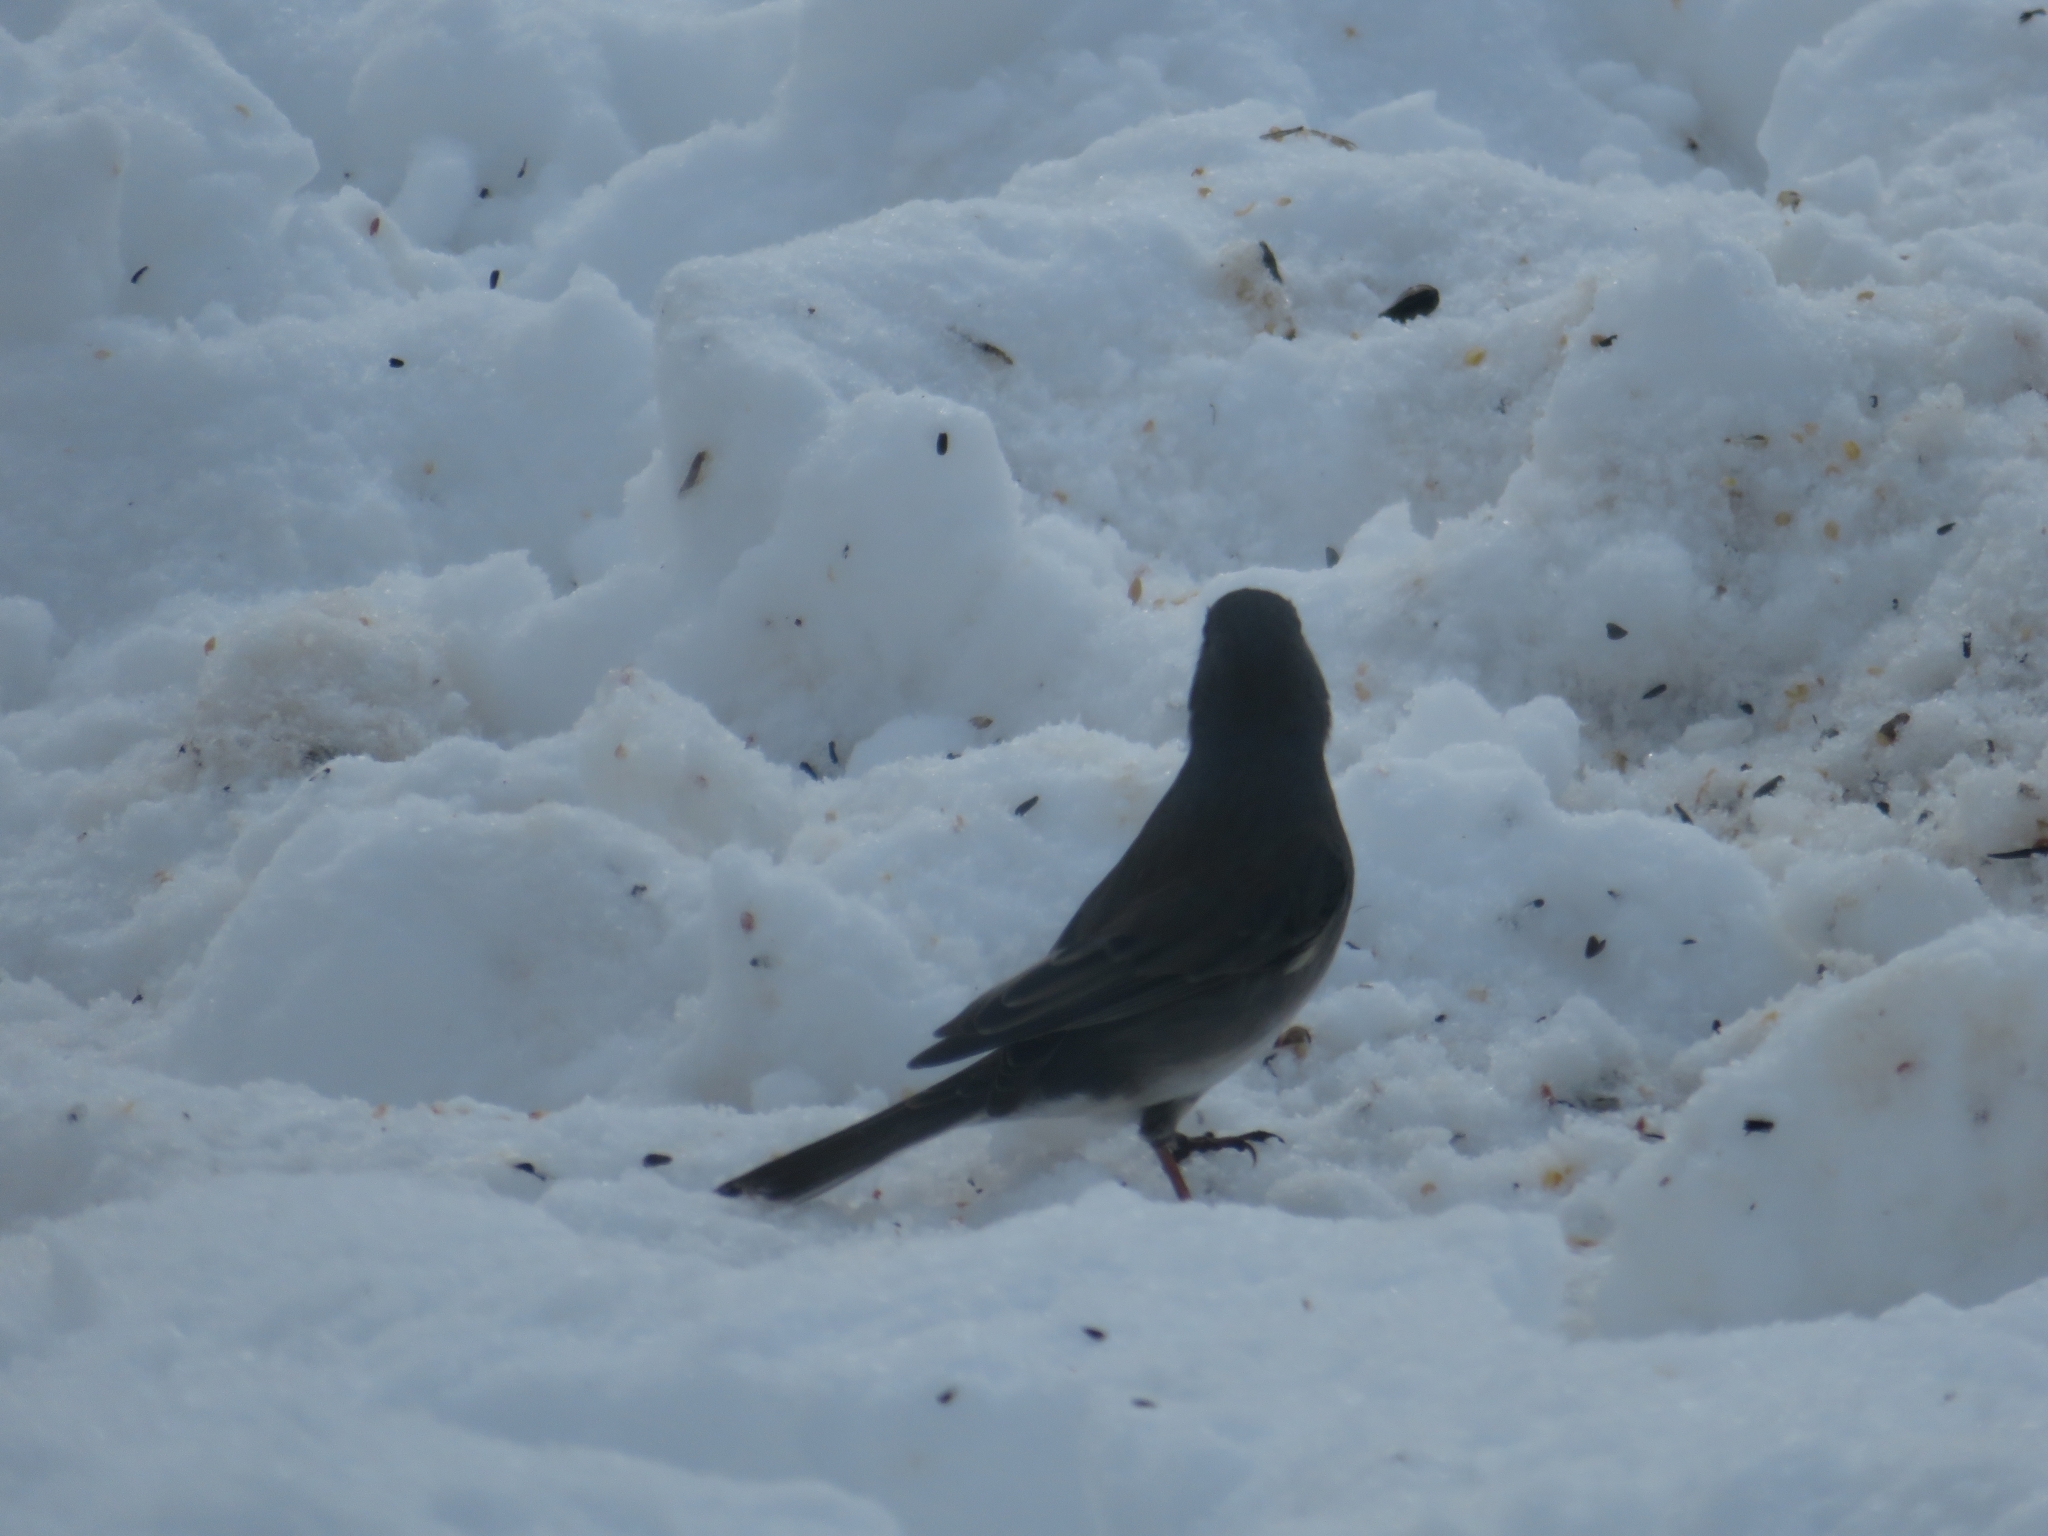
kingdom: Animalia
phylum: Chordata
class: Aves
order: Passeriformes
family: Passerellidae
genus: Junco
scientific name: Junco hyemalis
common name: Dark-eyed junco
